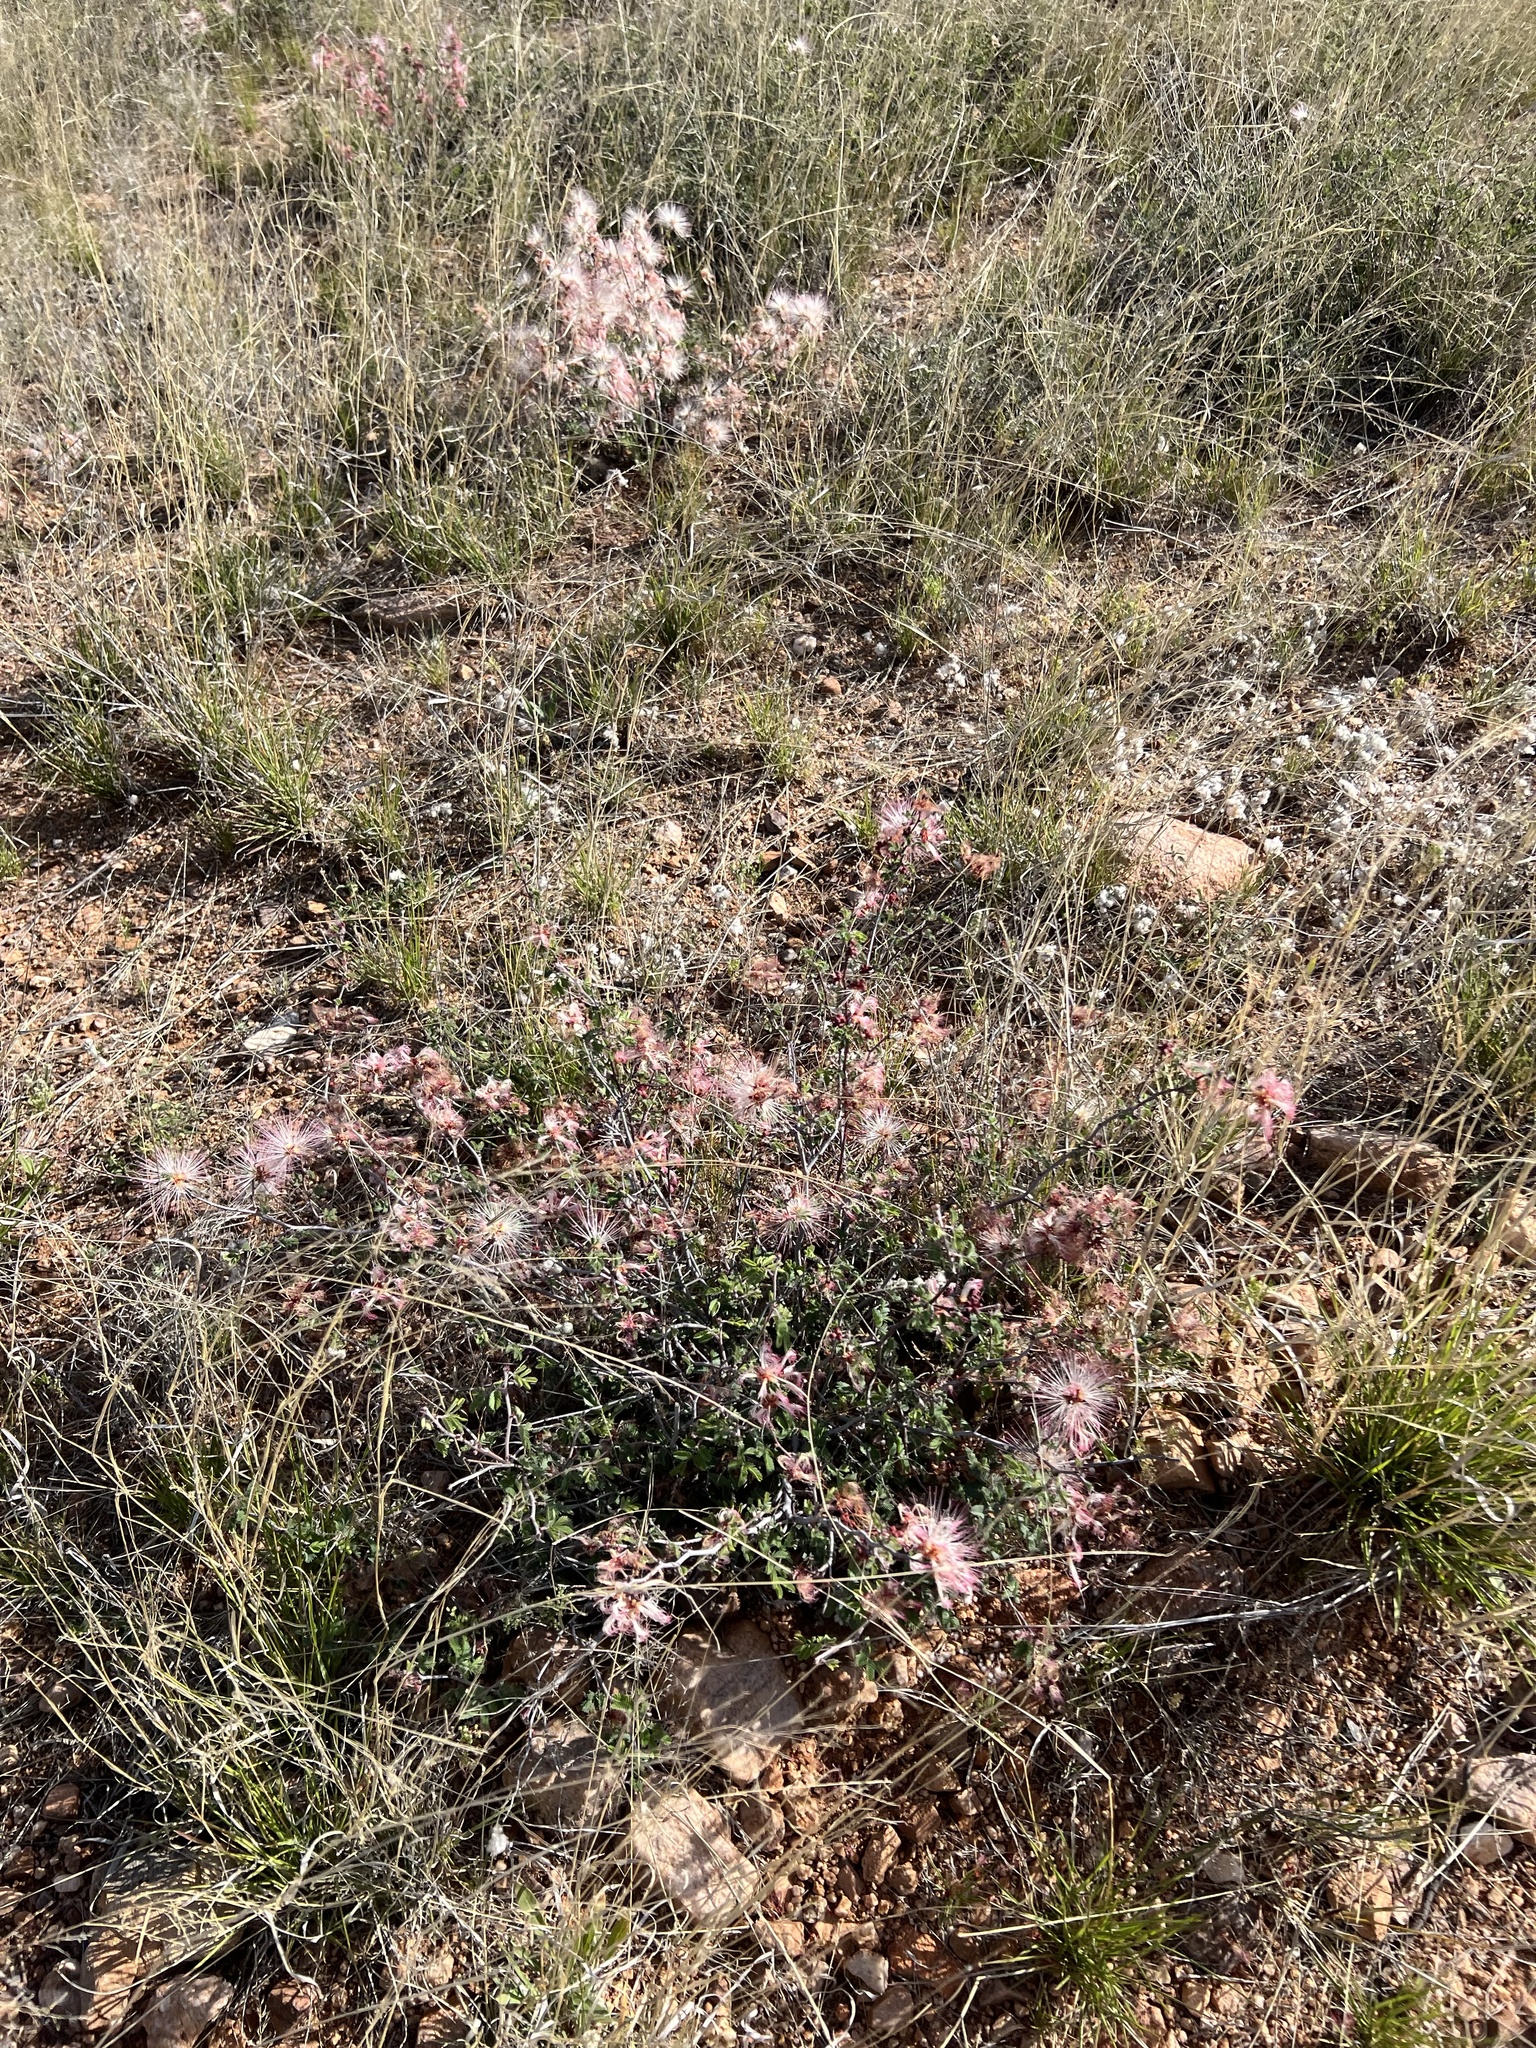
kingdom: Plantae
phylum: Tracheophyta
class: Magnoliopsida
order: Fabales
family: Fabaceae
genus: Calliandra
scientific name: Calliandra eriophylla
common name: Fairy-duster
